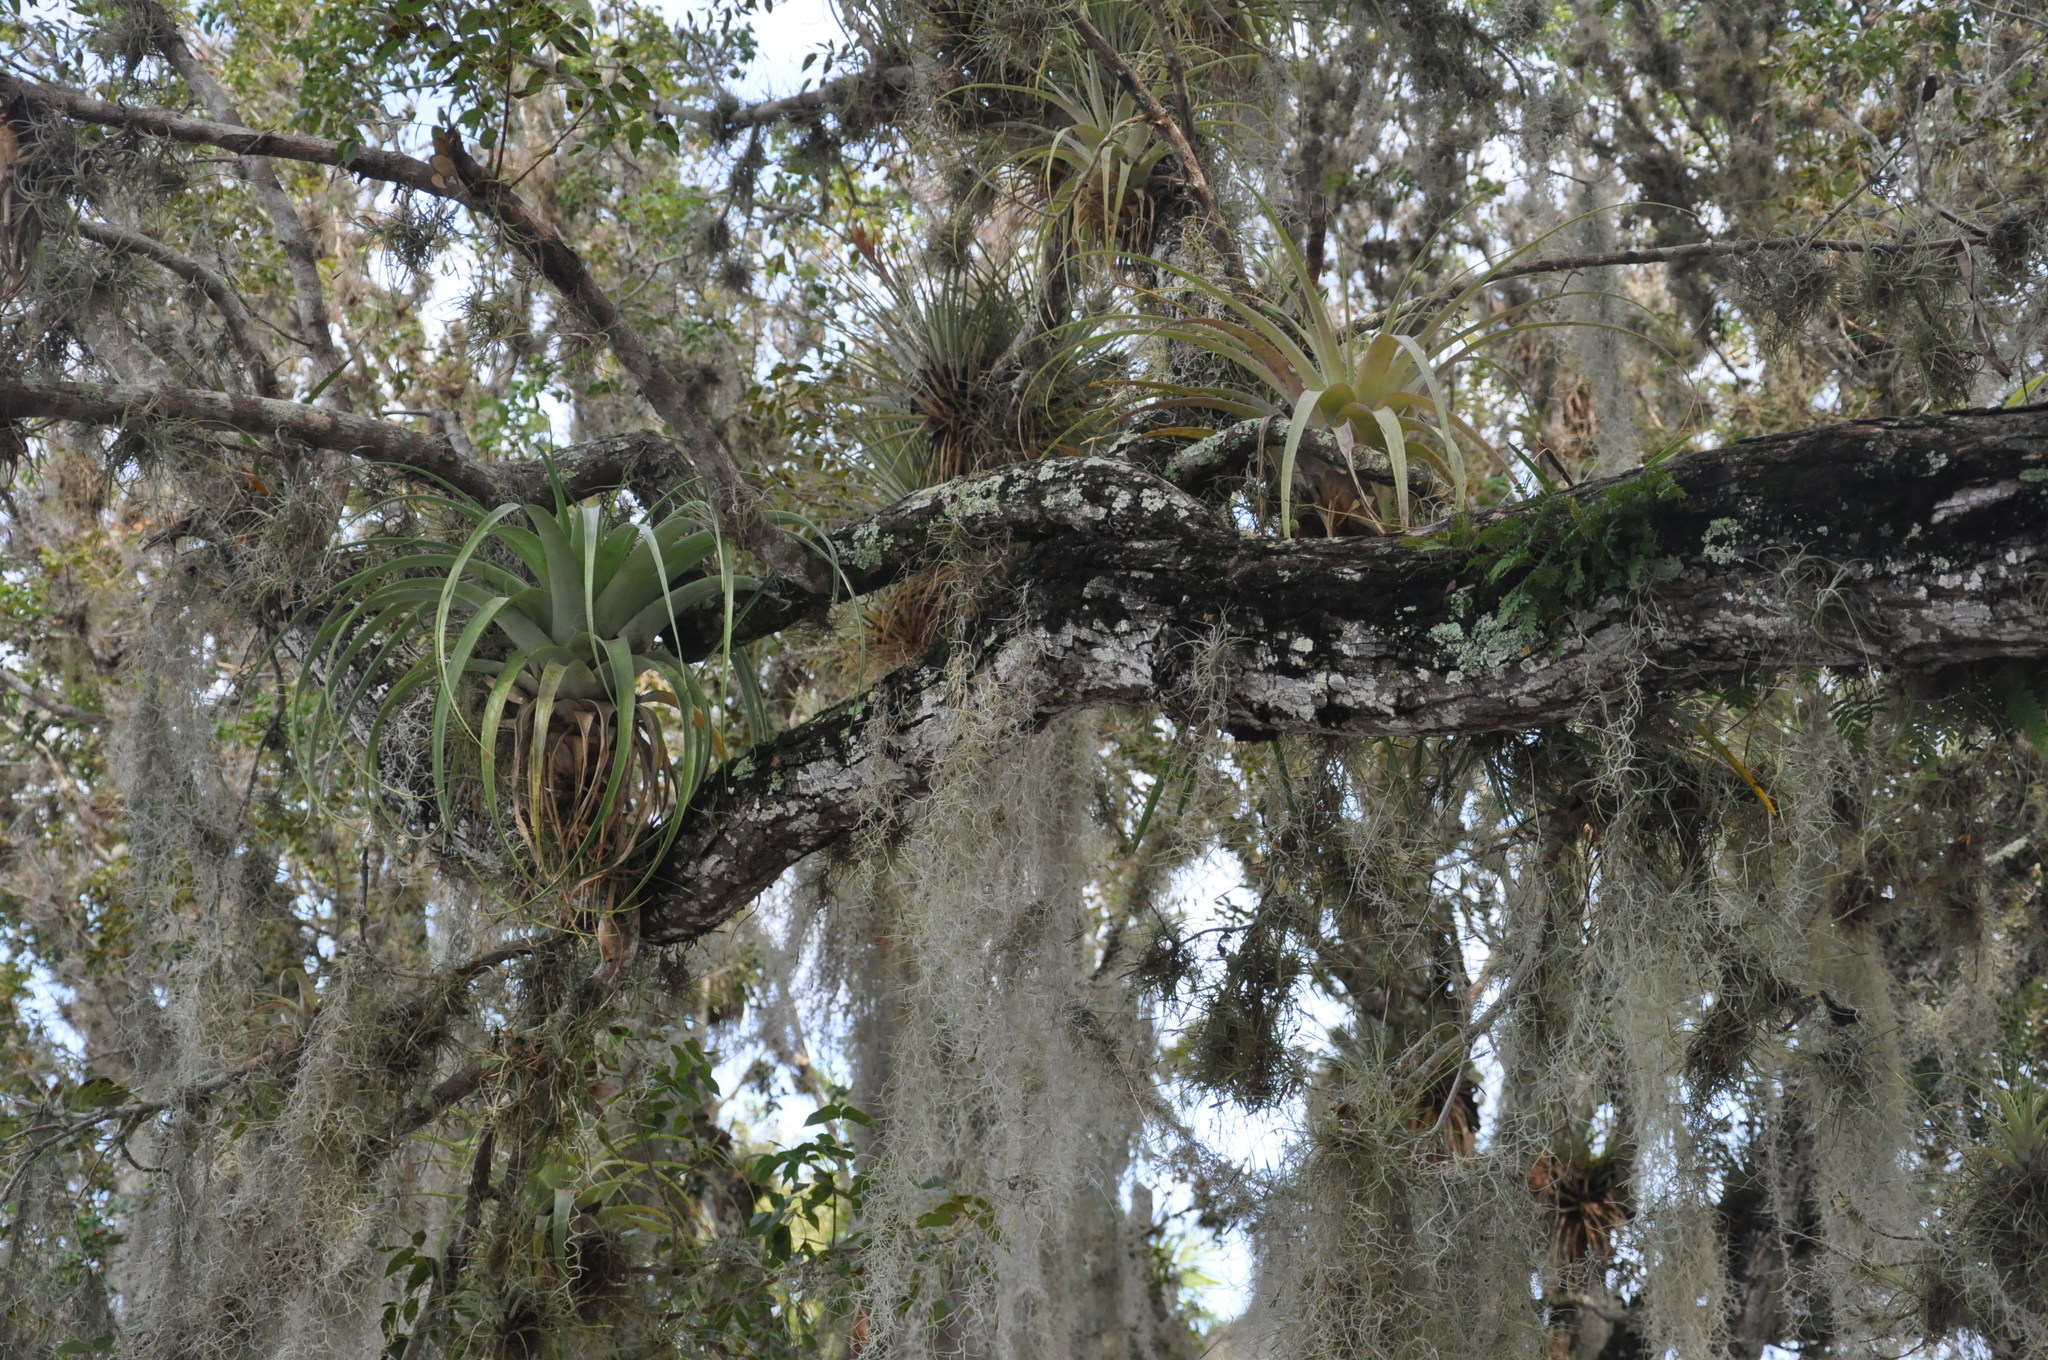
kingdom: Plantae
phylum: Tracheophyta
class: Liliopsida
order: Poales
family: Bromeliaceae
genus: Tillandsia
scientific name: Tillandsia usneoides
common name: Spanish moss
